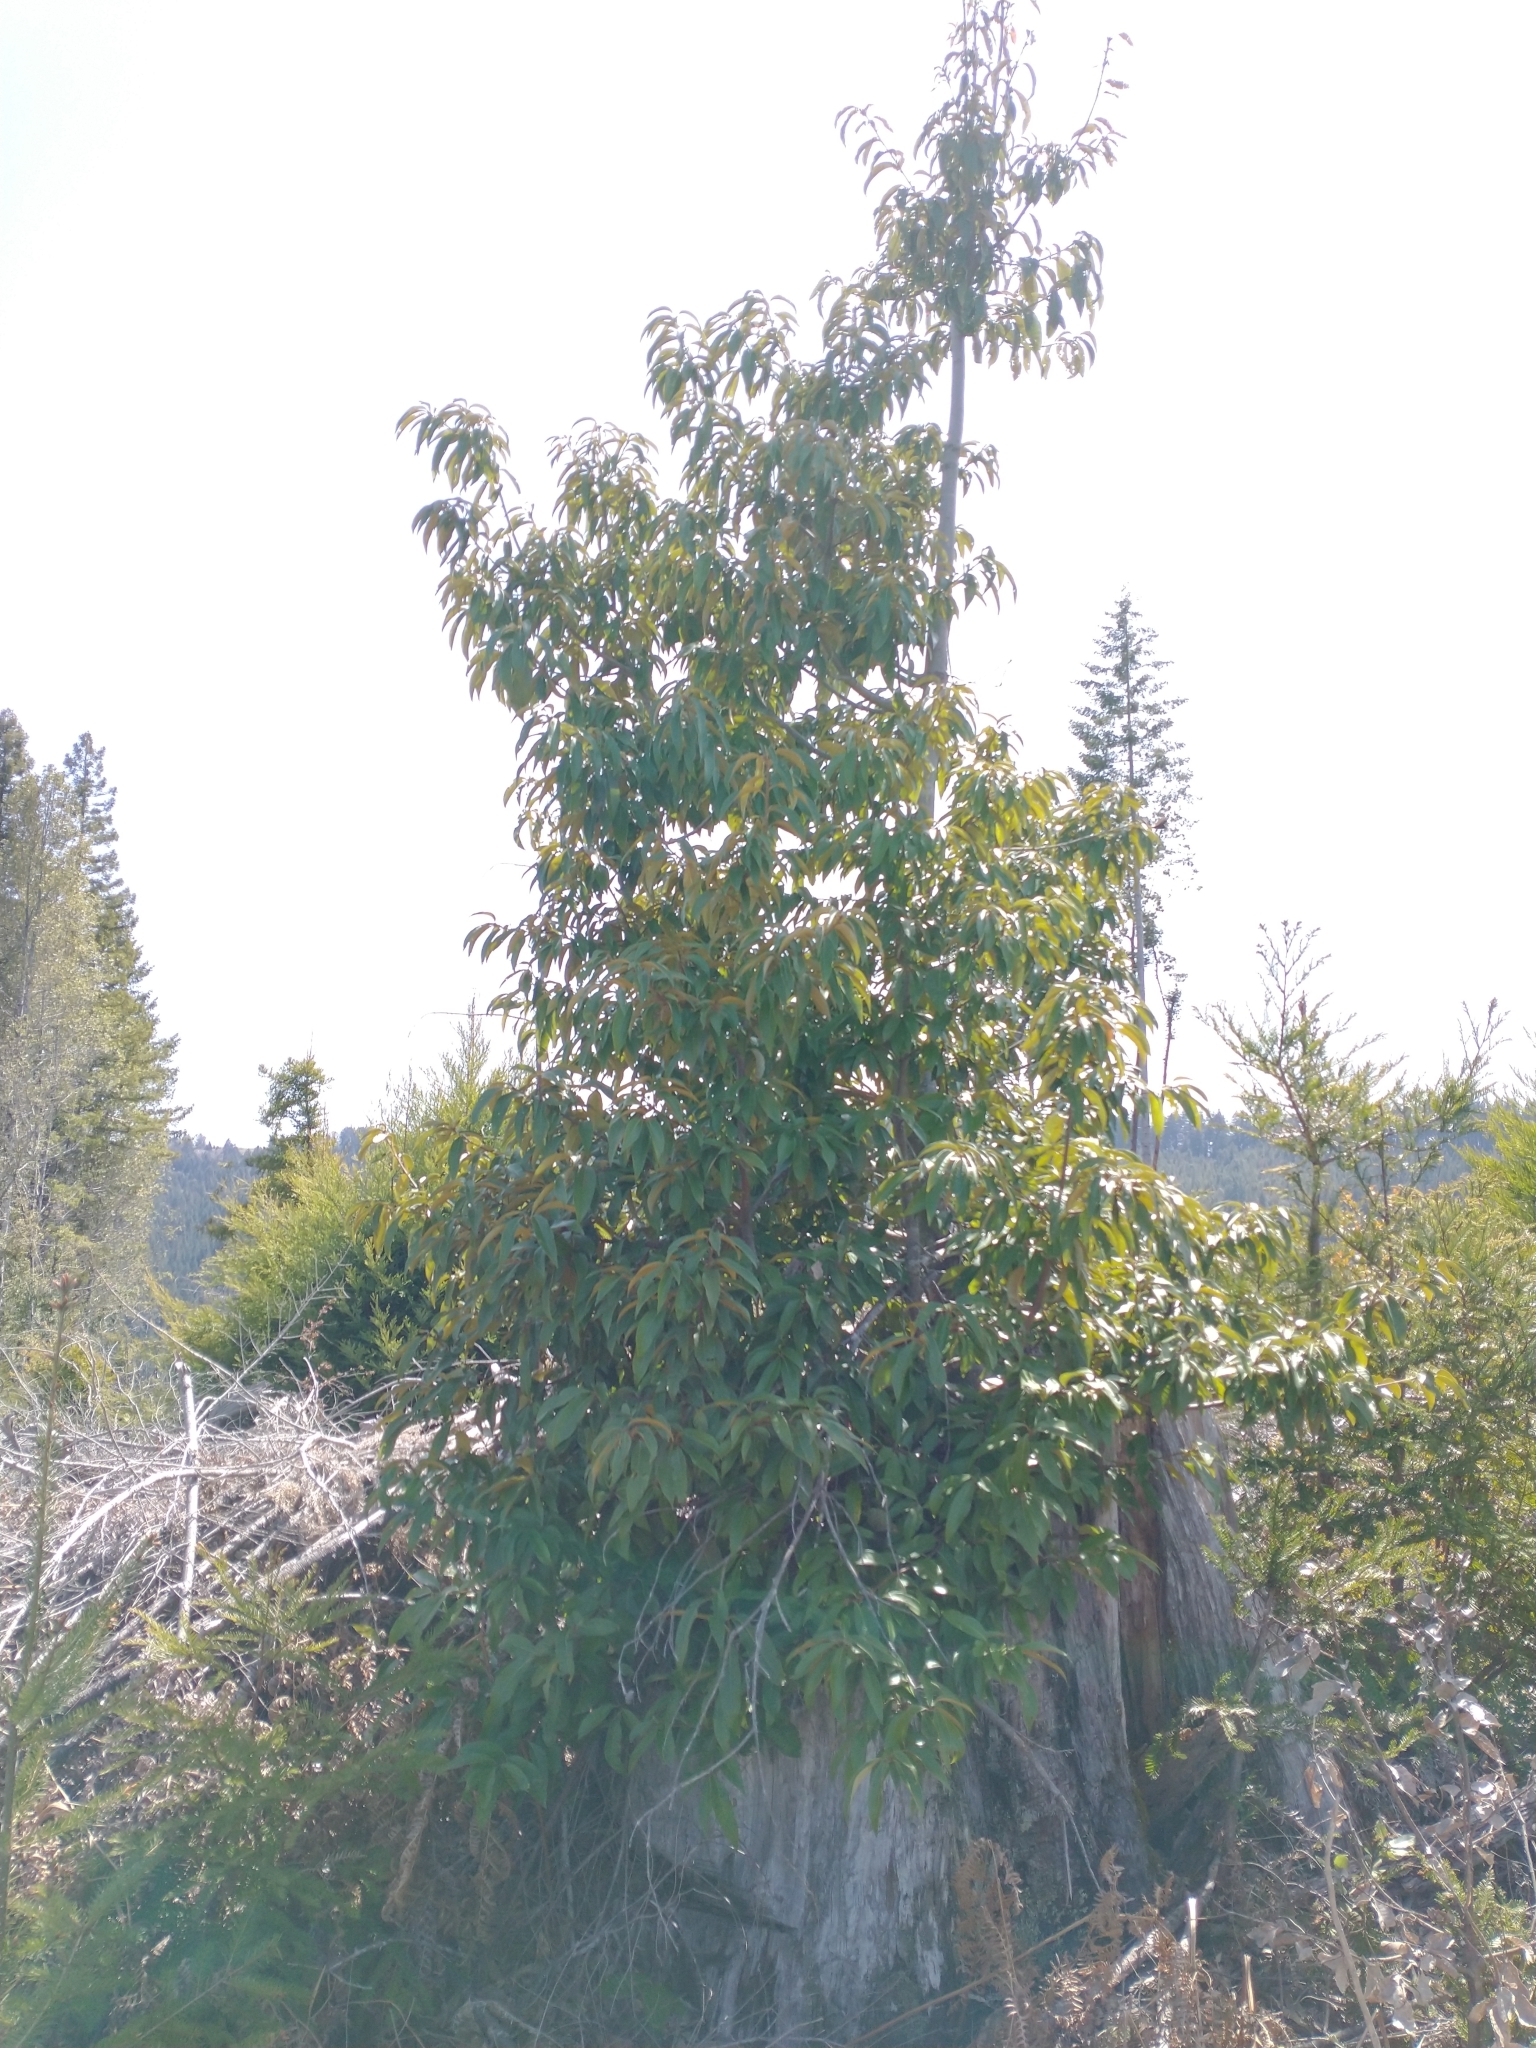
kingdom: Plantae
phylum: Tracheophyta
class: Magnoliopsida
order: Fagales
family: Fagaceae
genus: Chrysolepis
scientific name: Chrysolepis chrysophylla
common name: Giant chinquapin
